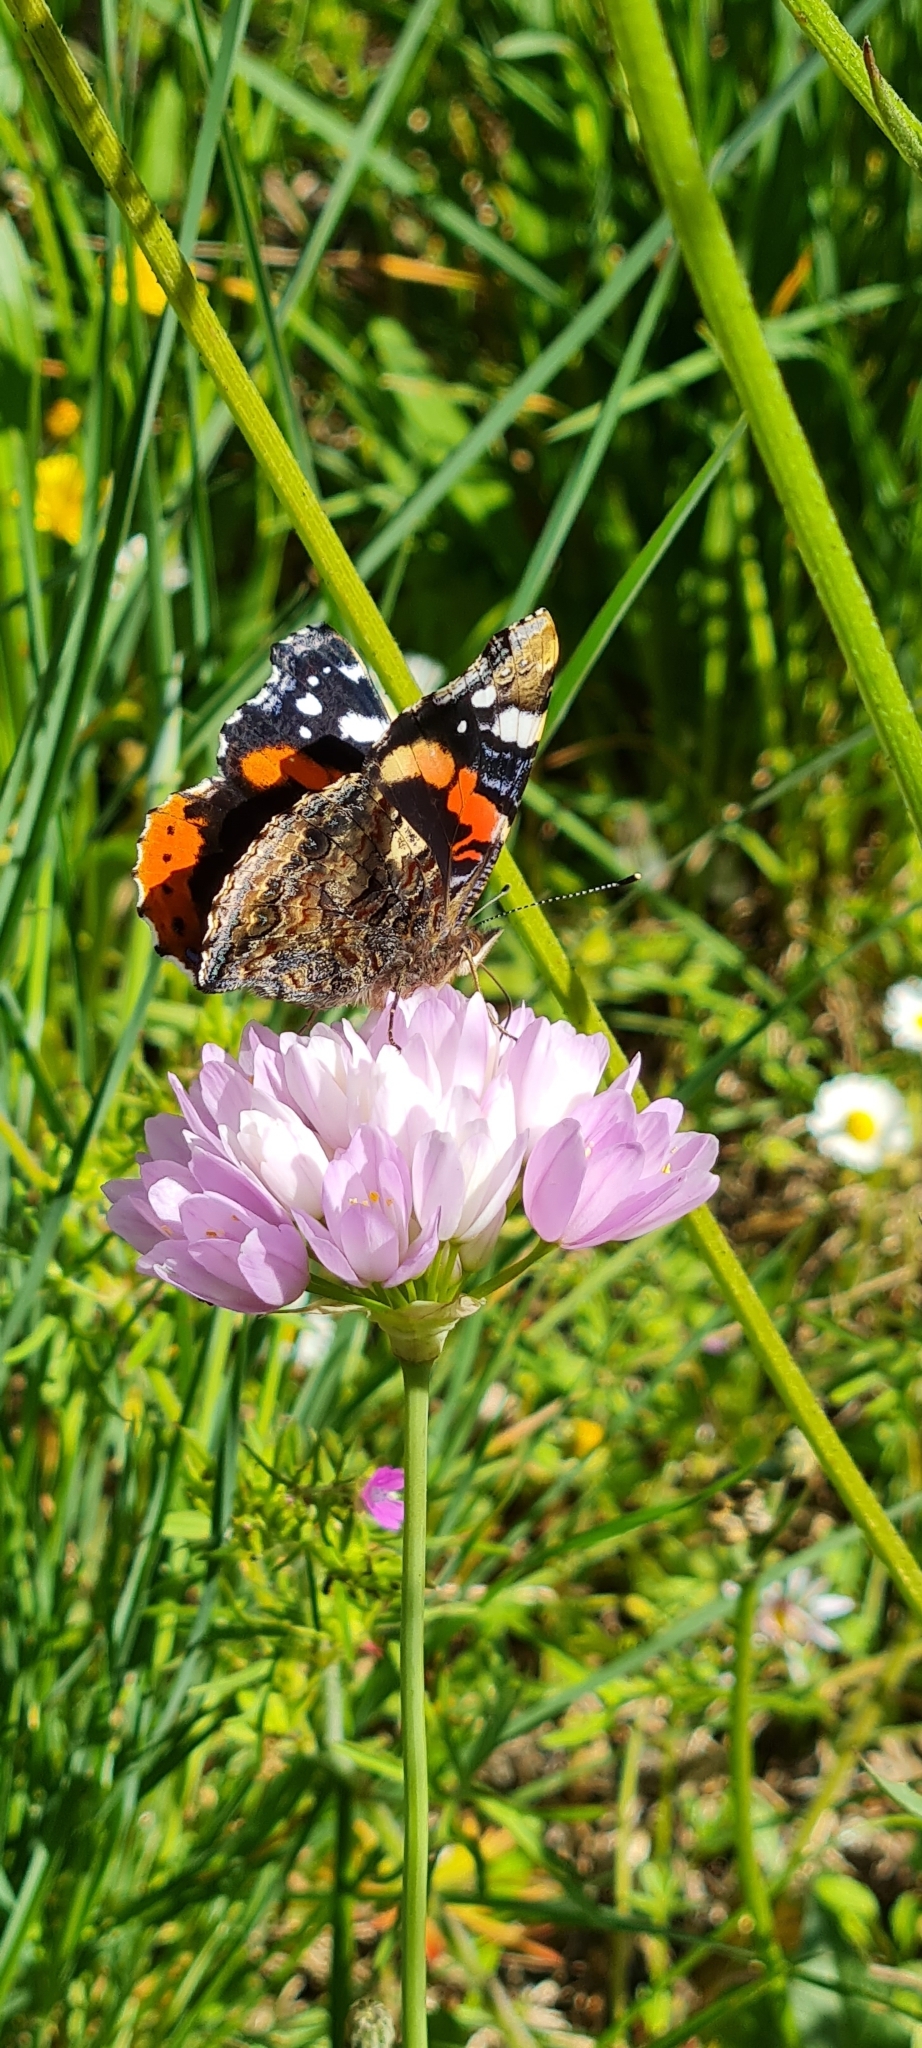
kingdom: Animalia
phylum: Arthropoda
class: Insecta
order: Lepidoptera
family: Nymphalidae
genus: Vanessa
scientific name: Vanessa atalanta
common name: Red admiral
